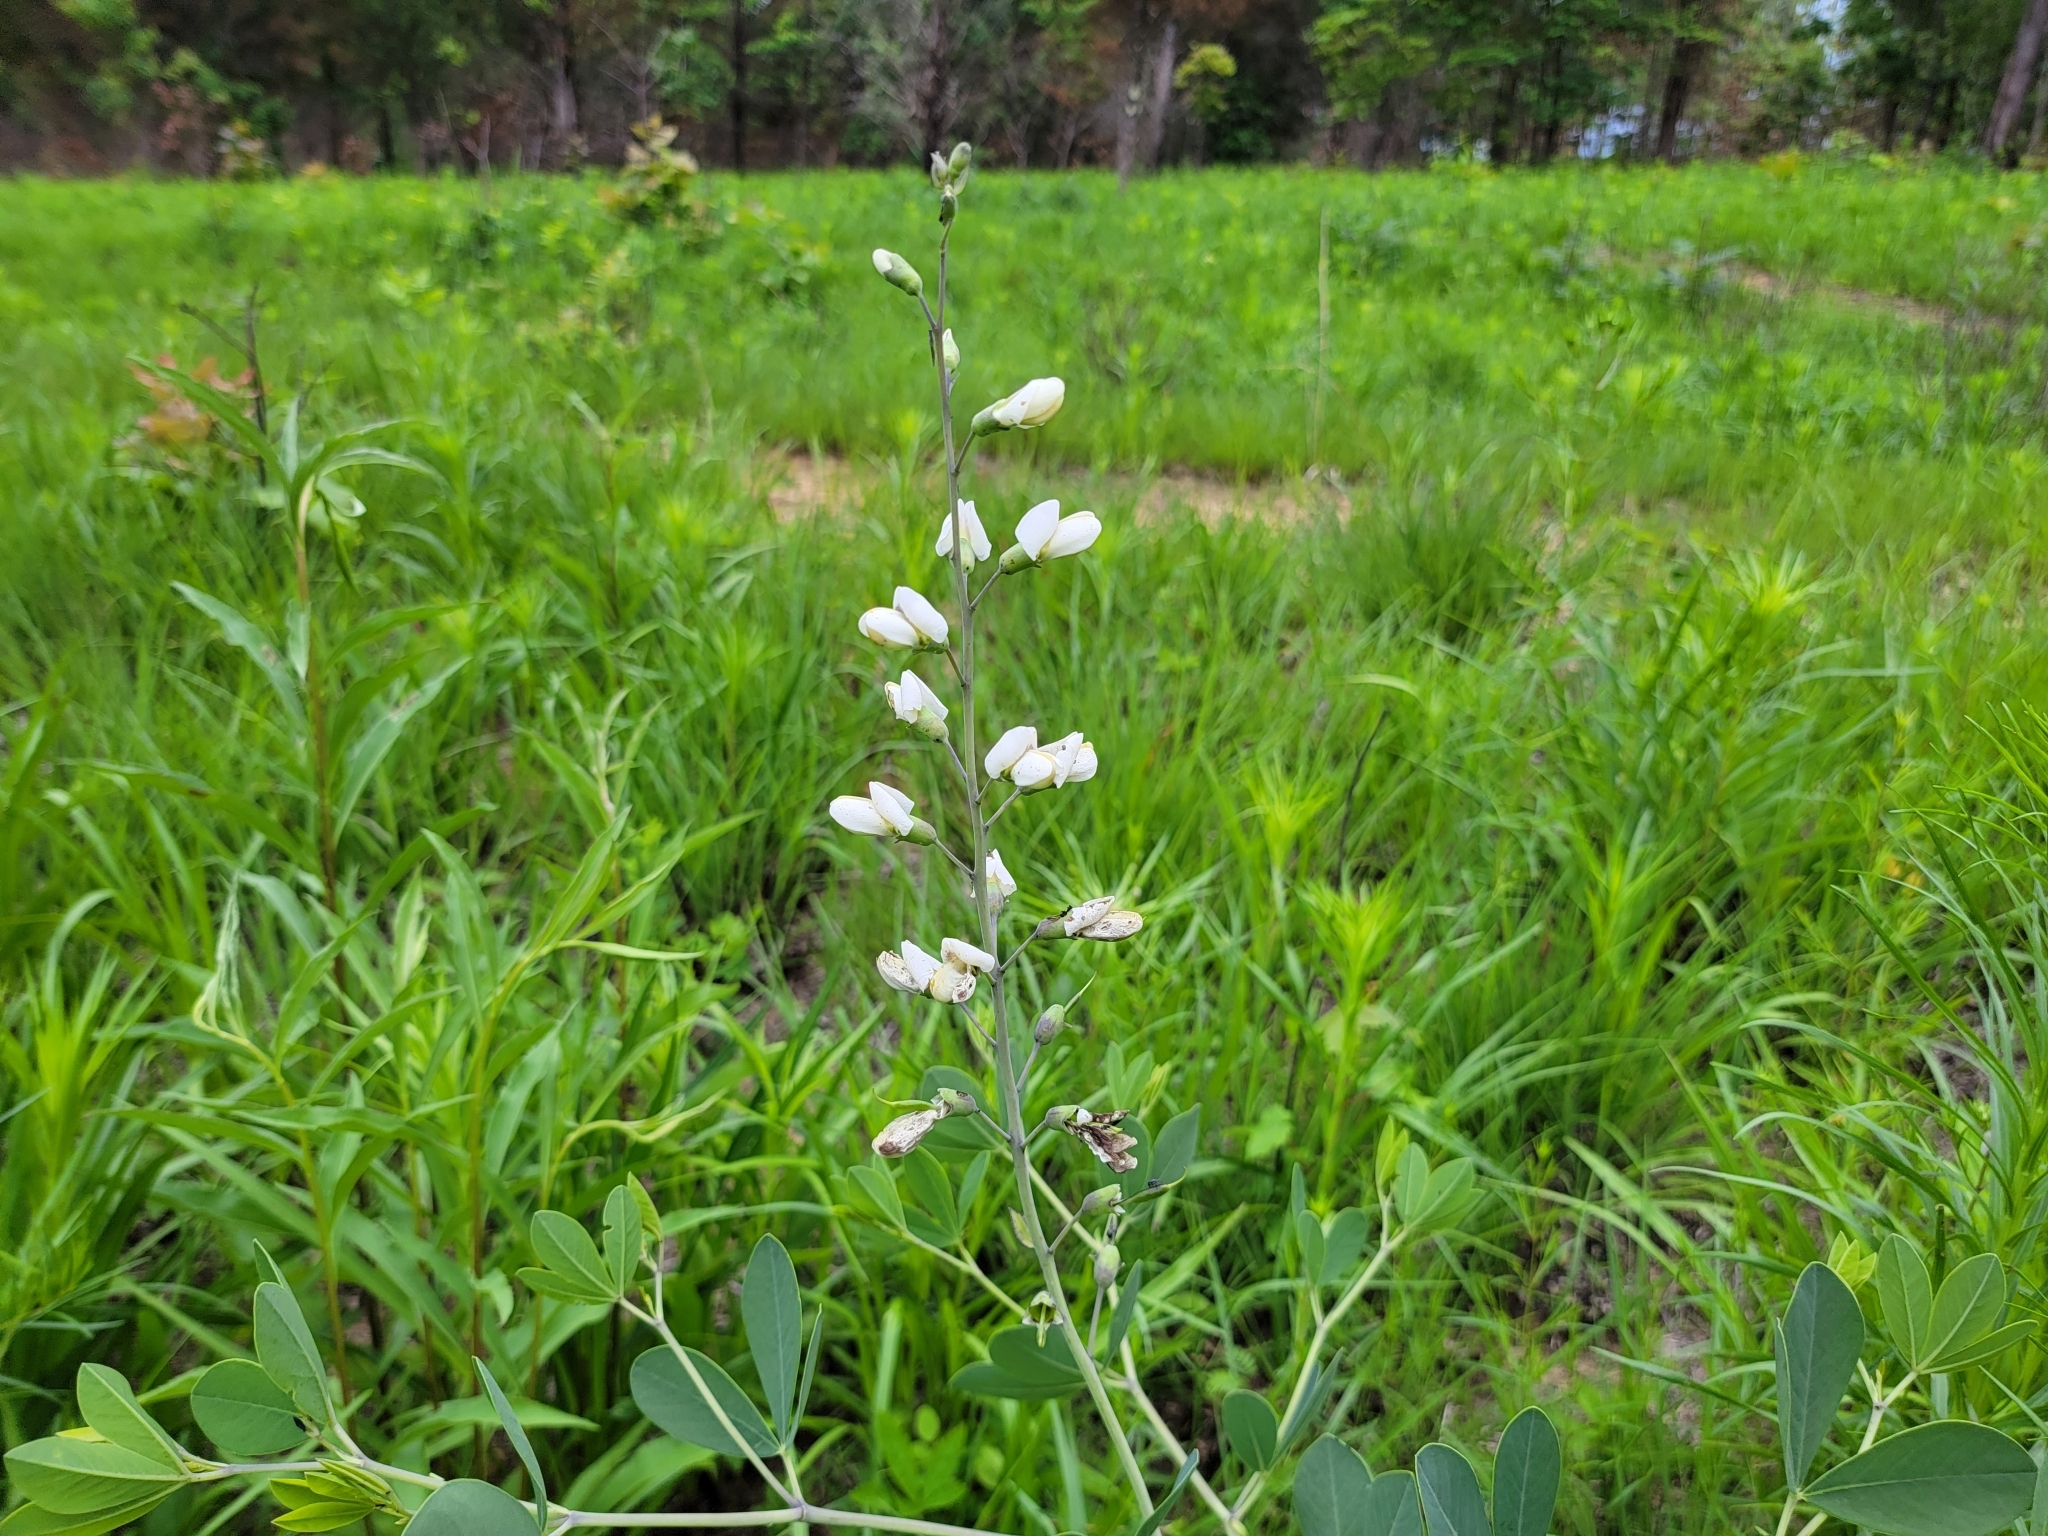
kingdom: Plantae
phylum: Tracheophyta
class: Magnoliopsida
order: Fabales
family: Fabaceae
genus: Baptisia
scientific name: Baptisia alba
